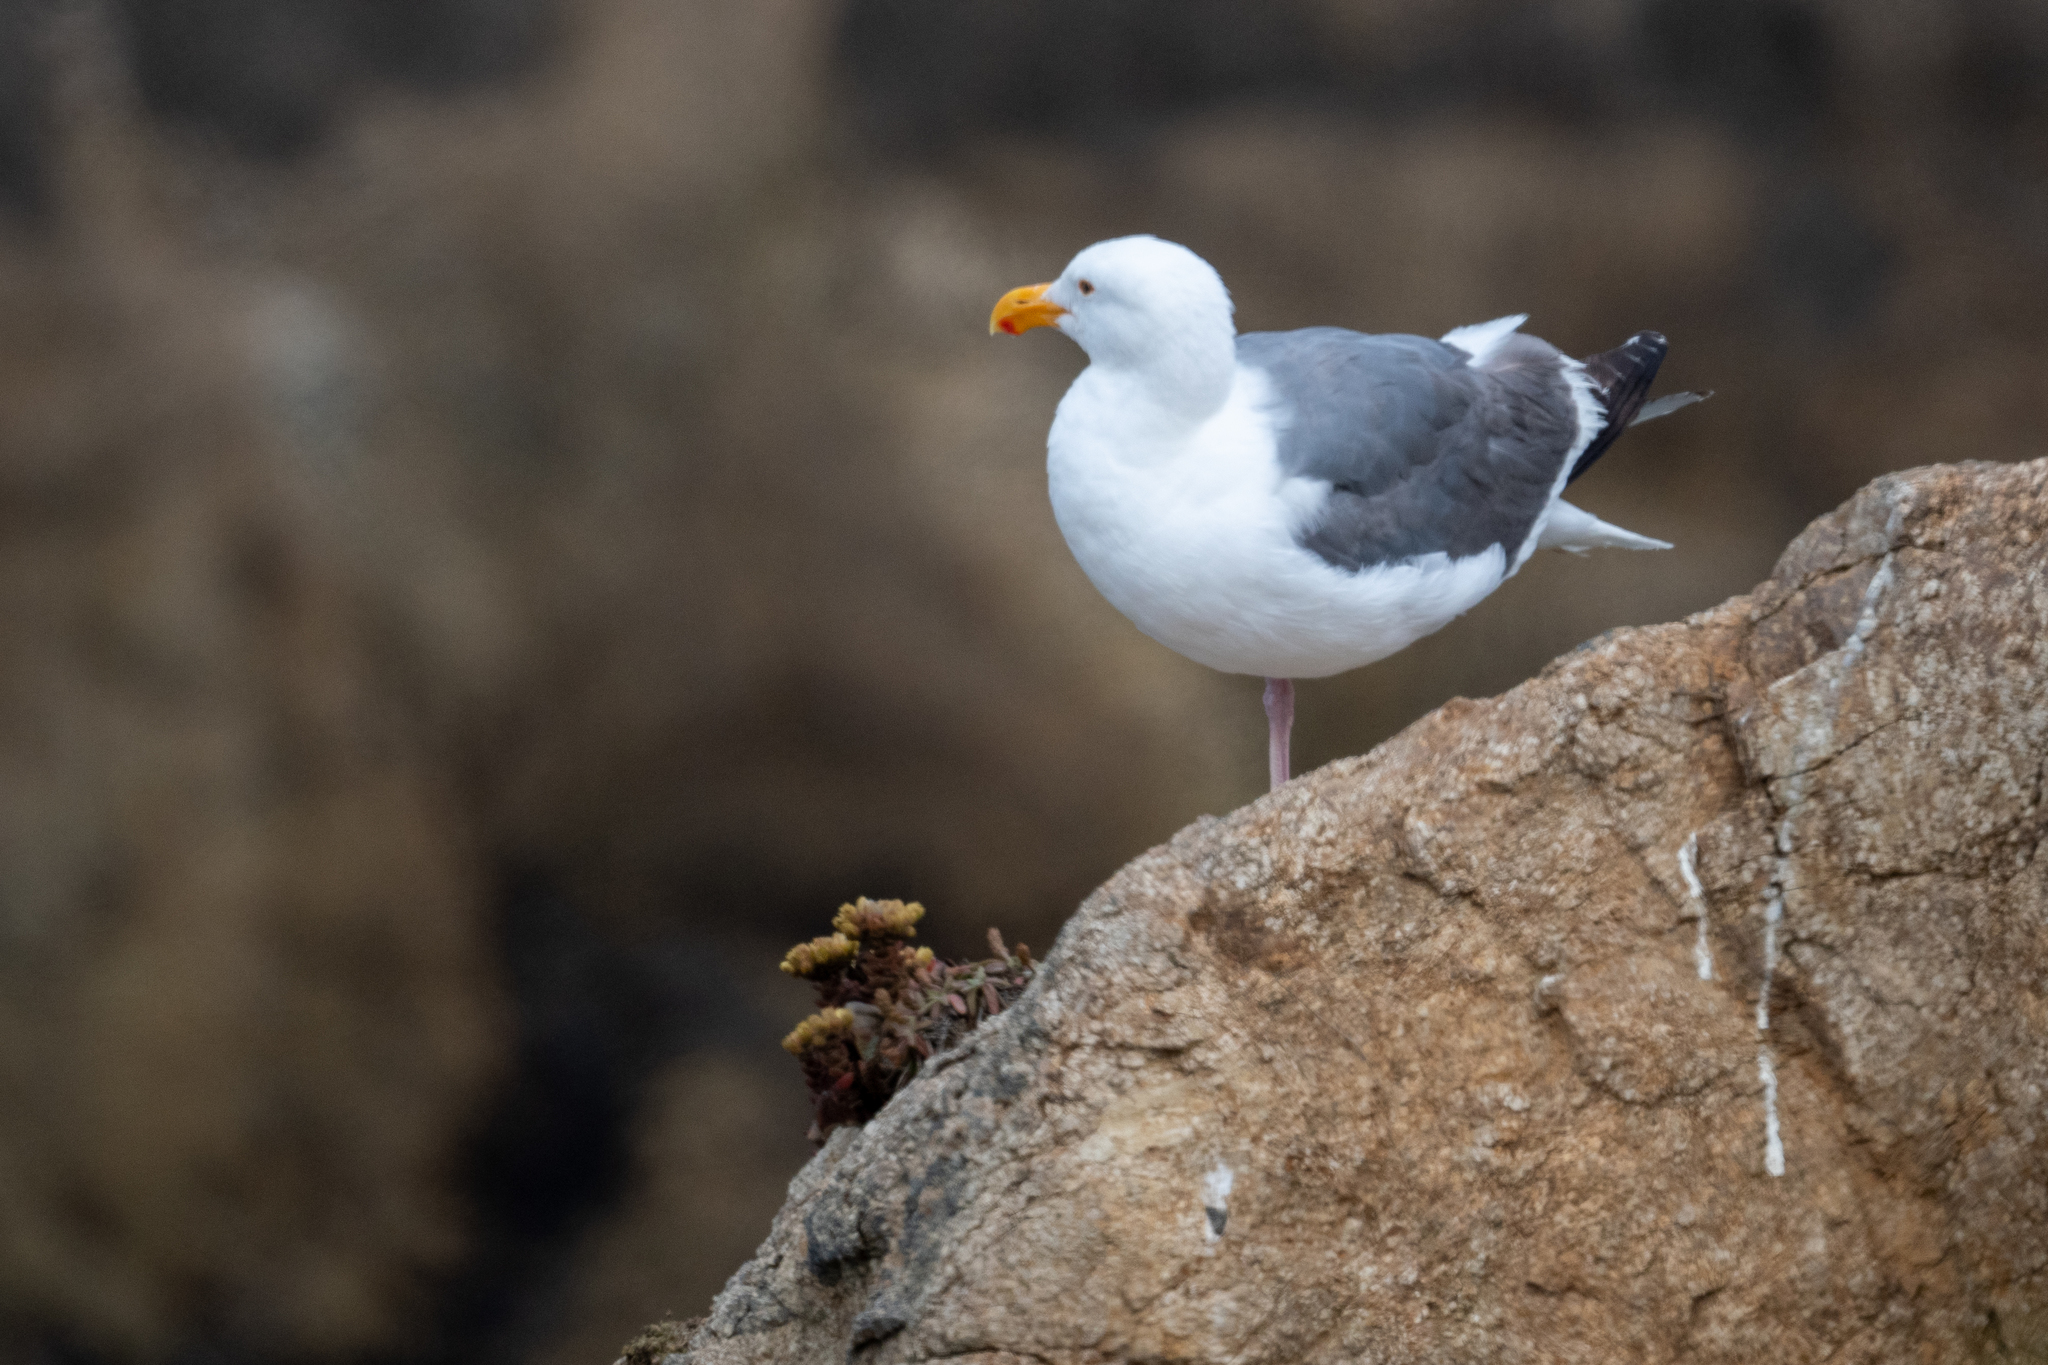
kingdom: Animalia
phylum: Chordata
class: Aves
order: Charadriiformes
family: Laridae
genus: Larus
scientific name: Larus occidentalis
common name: Western gull
